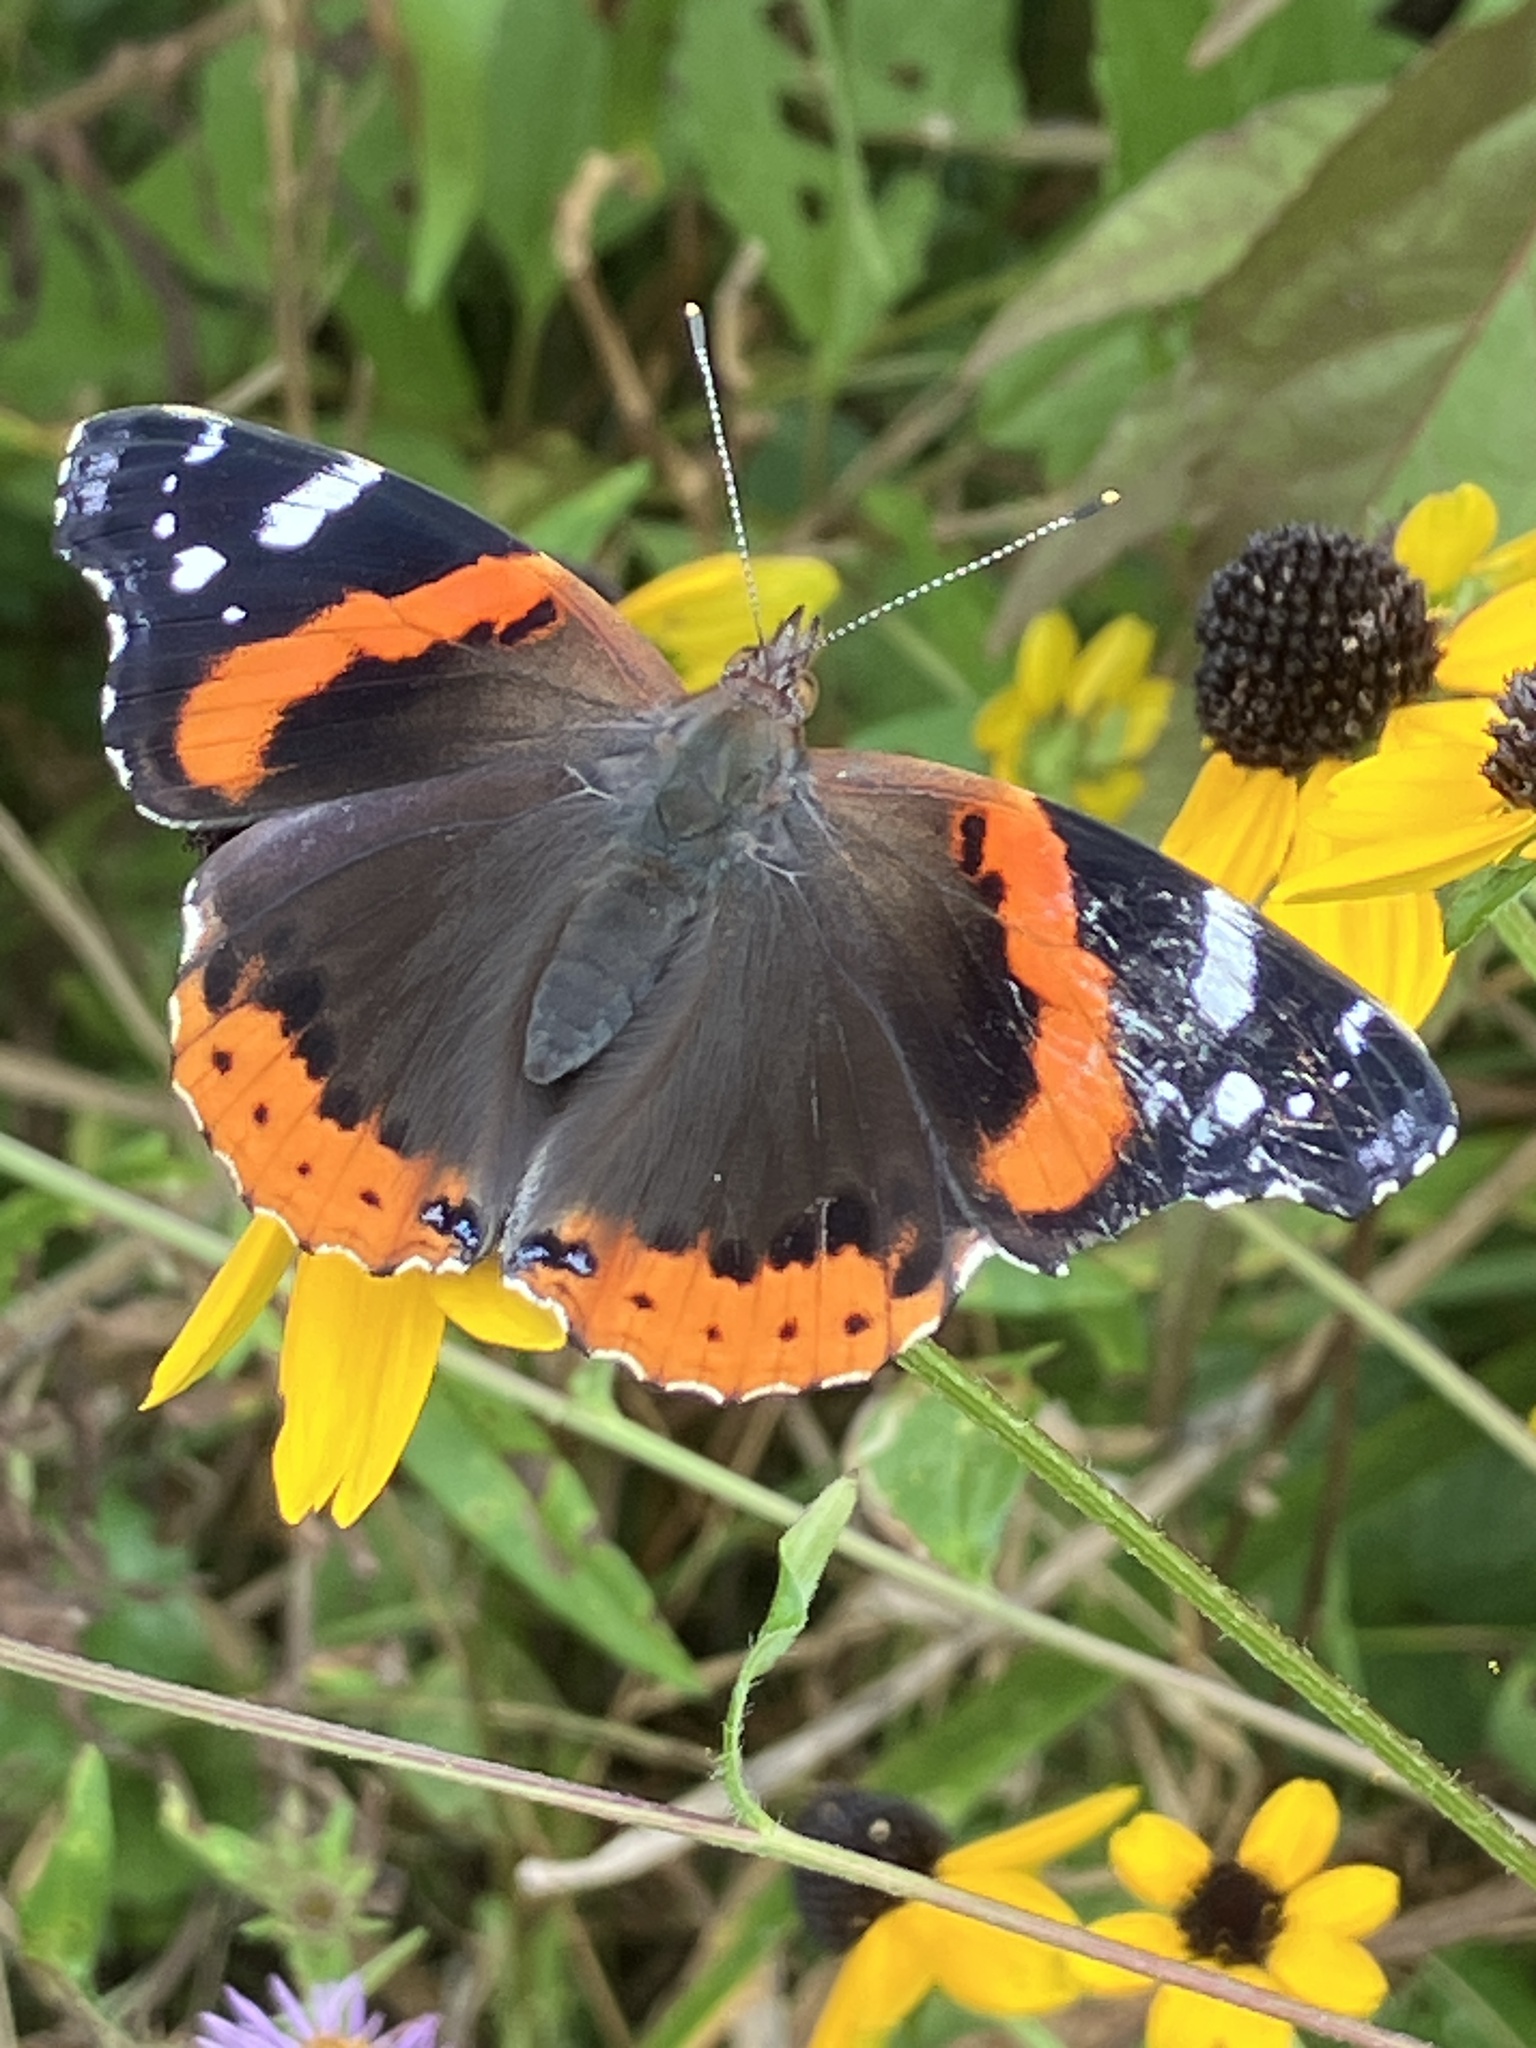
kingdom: Animalia
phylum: Arthropoda
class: Insecta
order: Lepidoptera
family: Nymphalidae
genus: Vanessa
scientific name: Vanessa atalanta
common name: Red admiral
